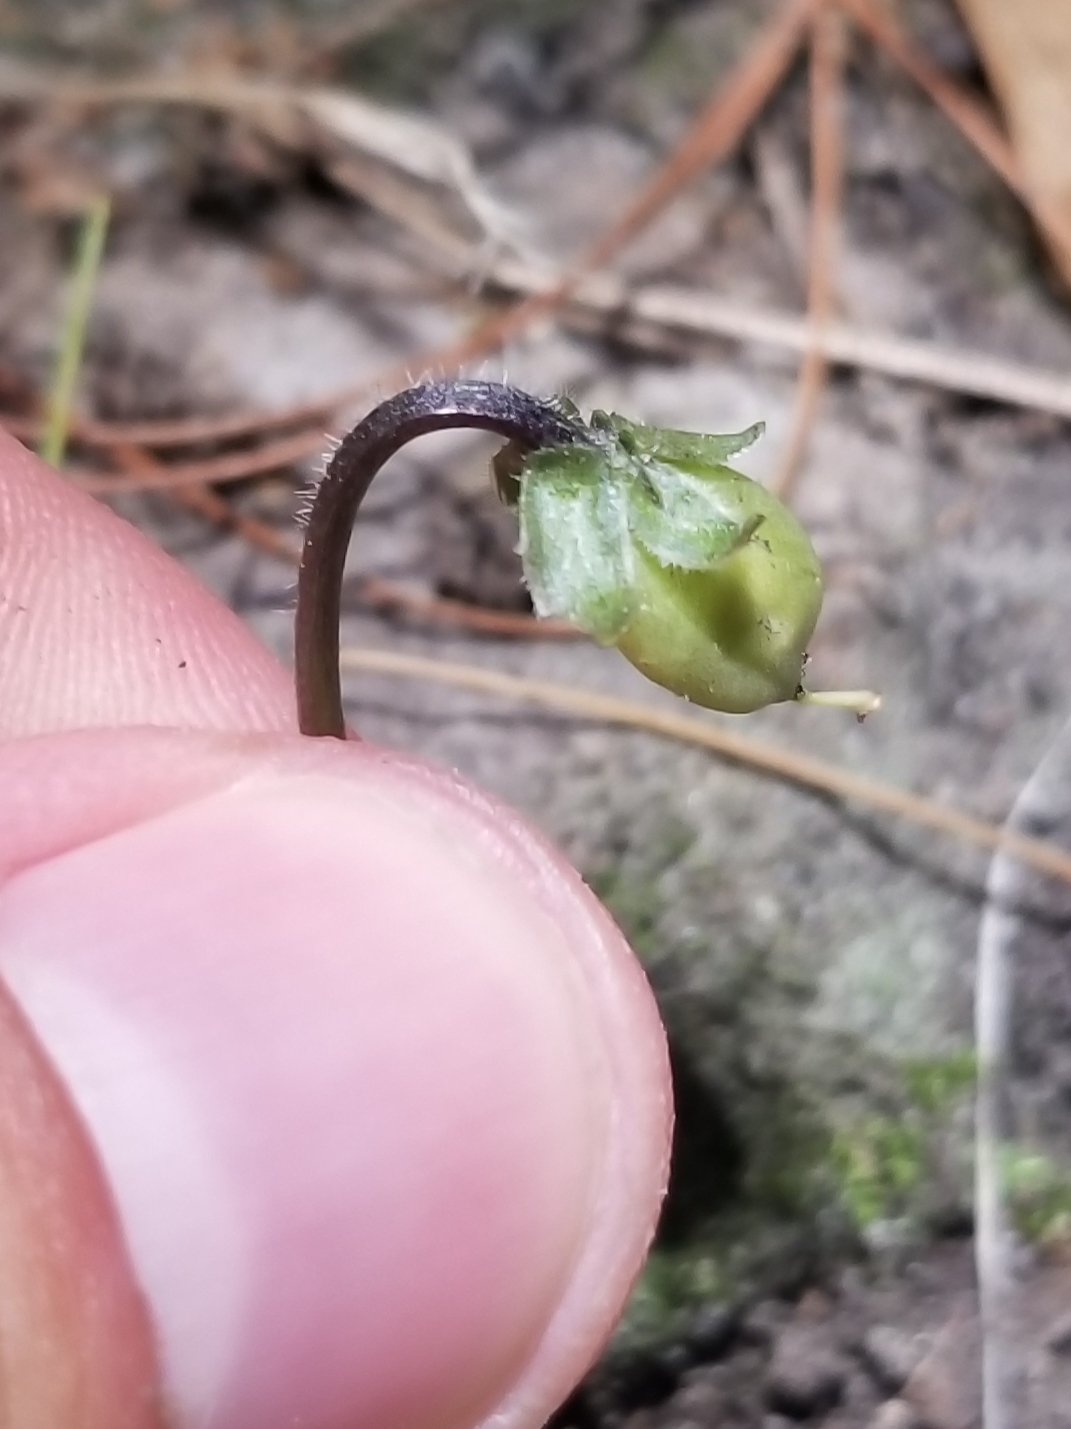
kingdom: Plantae
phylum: Tracheophyta
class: Magnoliopsida
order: Malpighiales
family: Violaceae
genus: Viola
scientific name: Viola sororia
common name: Dooryard violet
